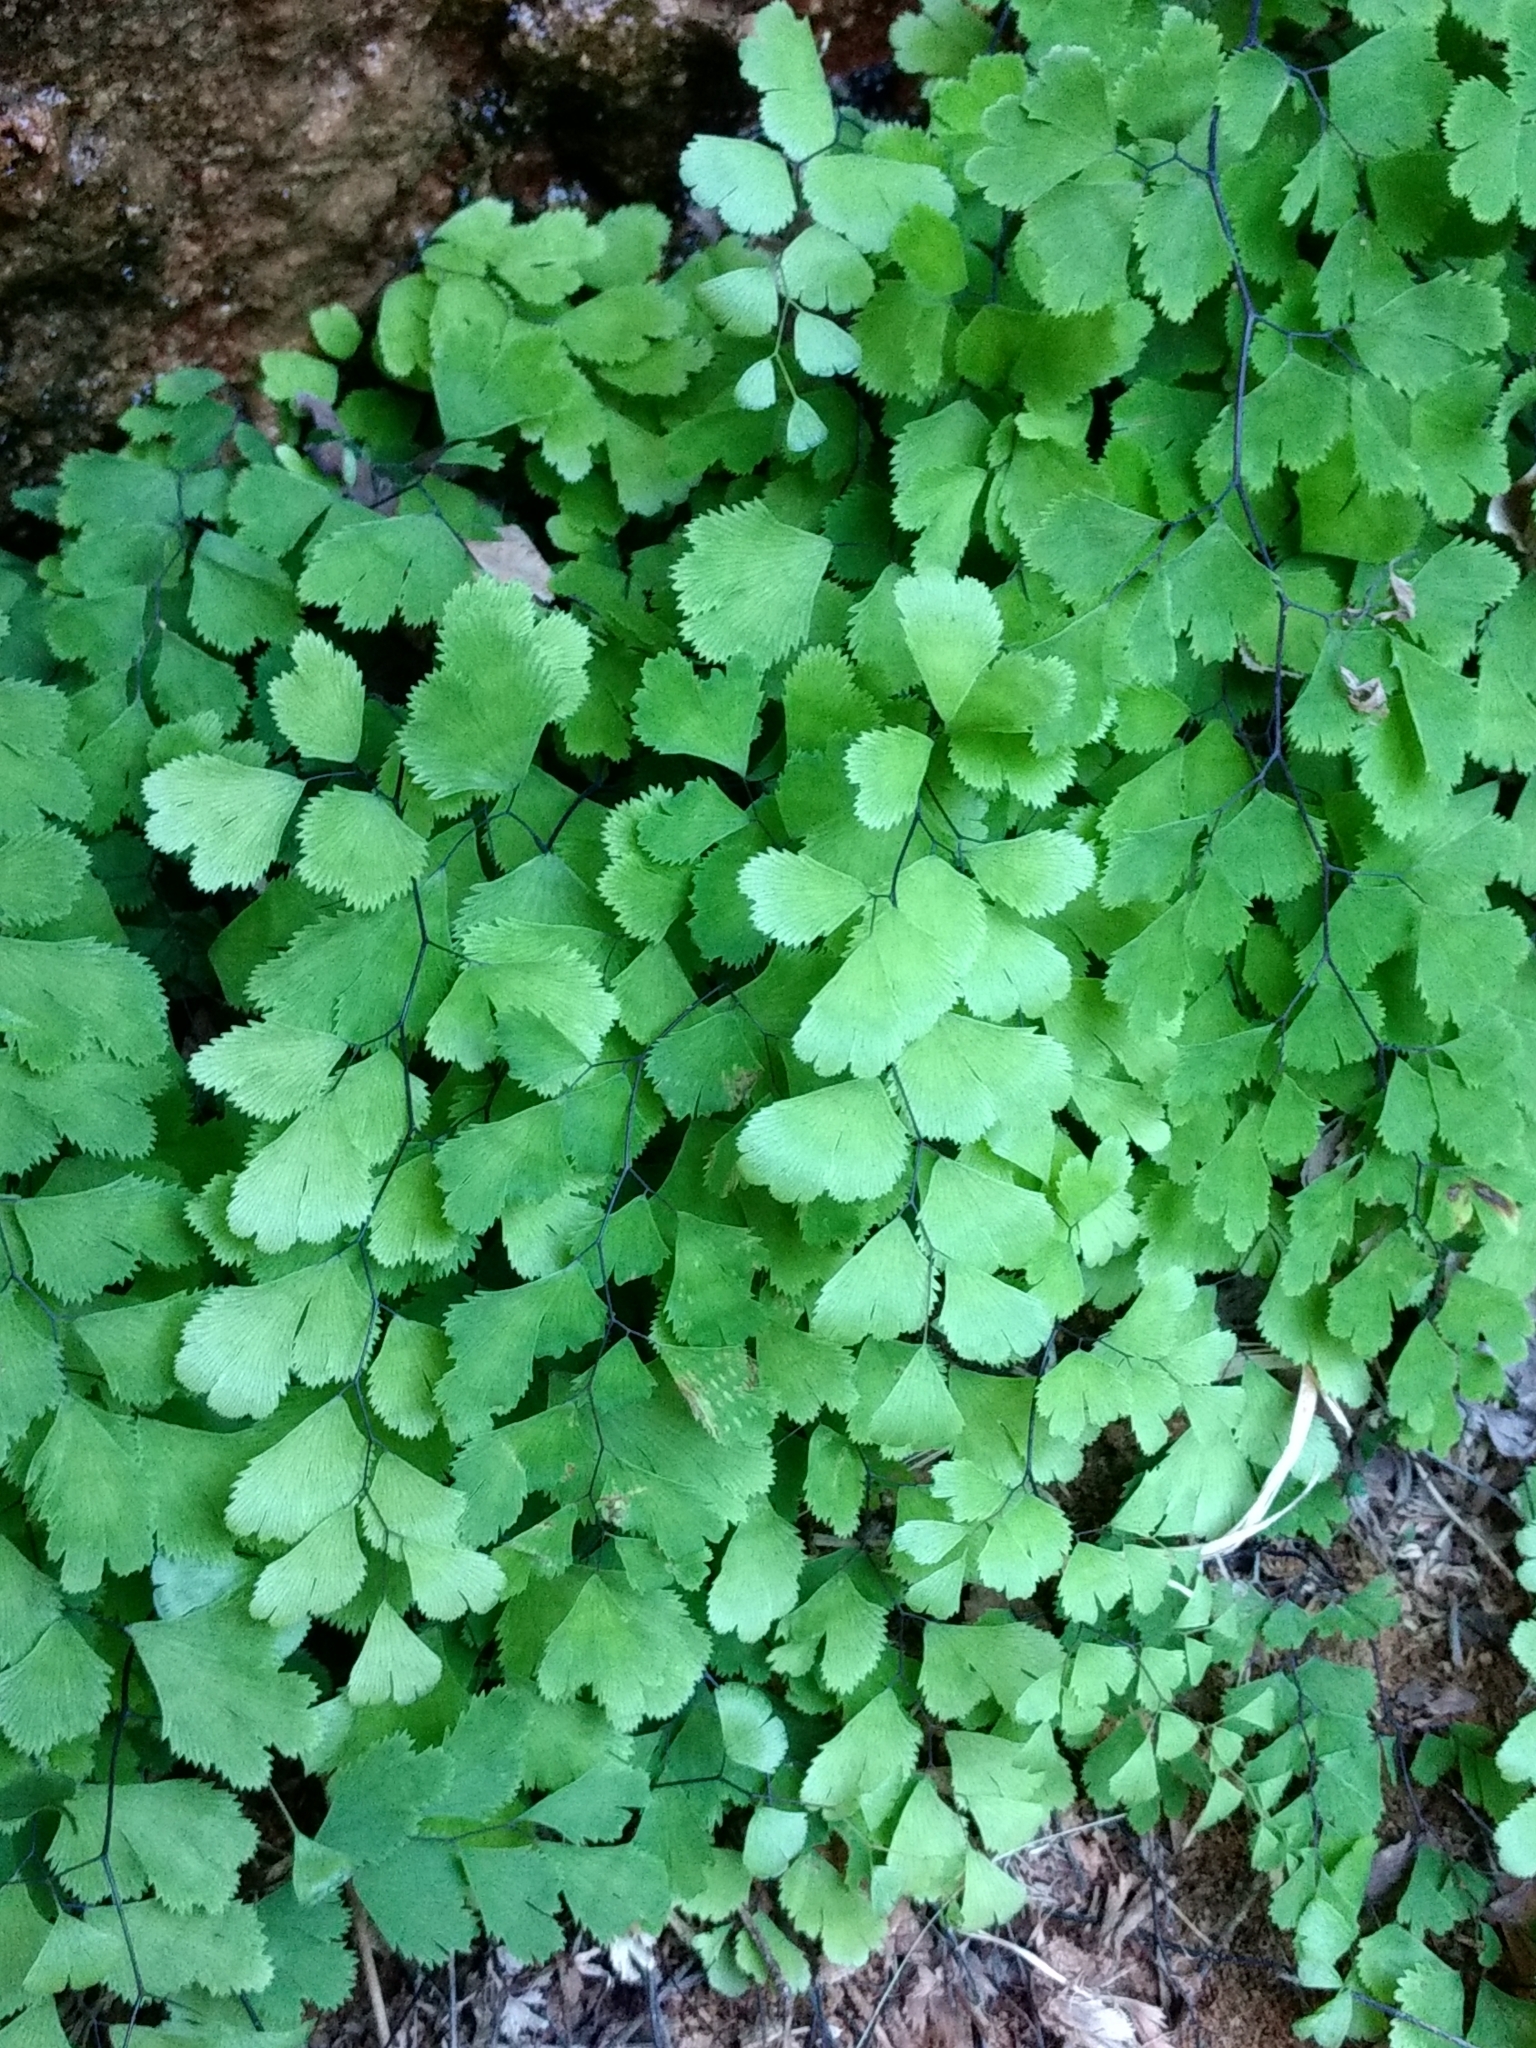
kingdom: Plantae
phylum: Tracheophyta
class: Polypodiopsida
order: Polypodiales
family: Pteridaceae
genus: Adiantum
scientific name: Adiantum capillus-veneris
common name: Maidenhair fern
